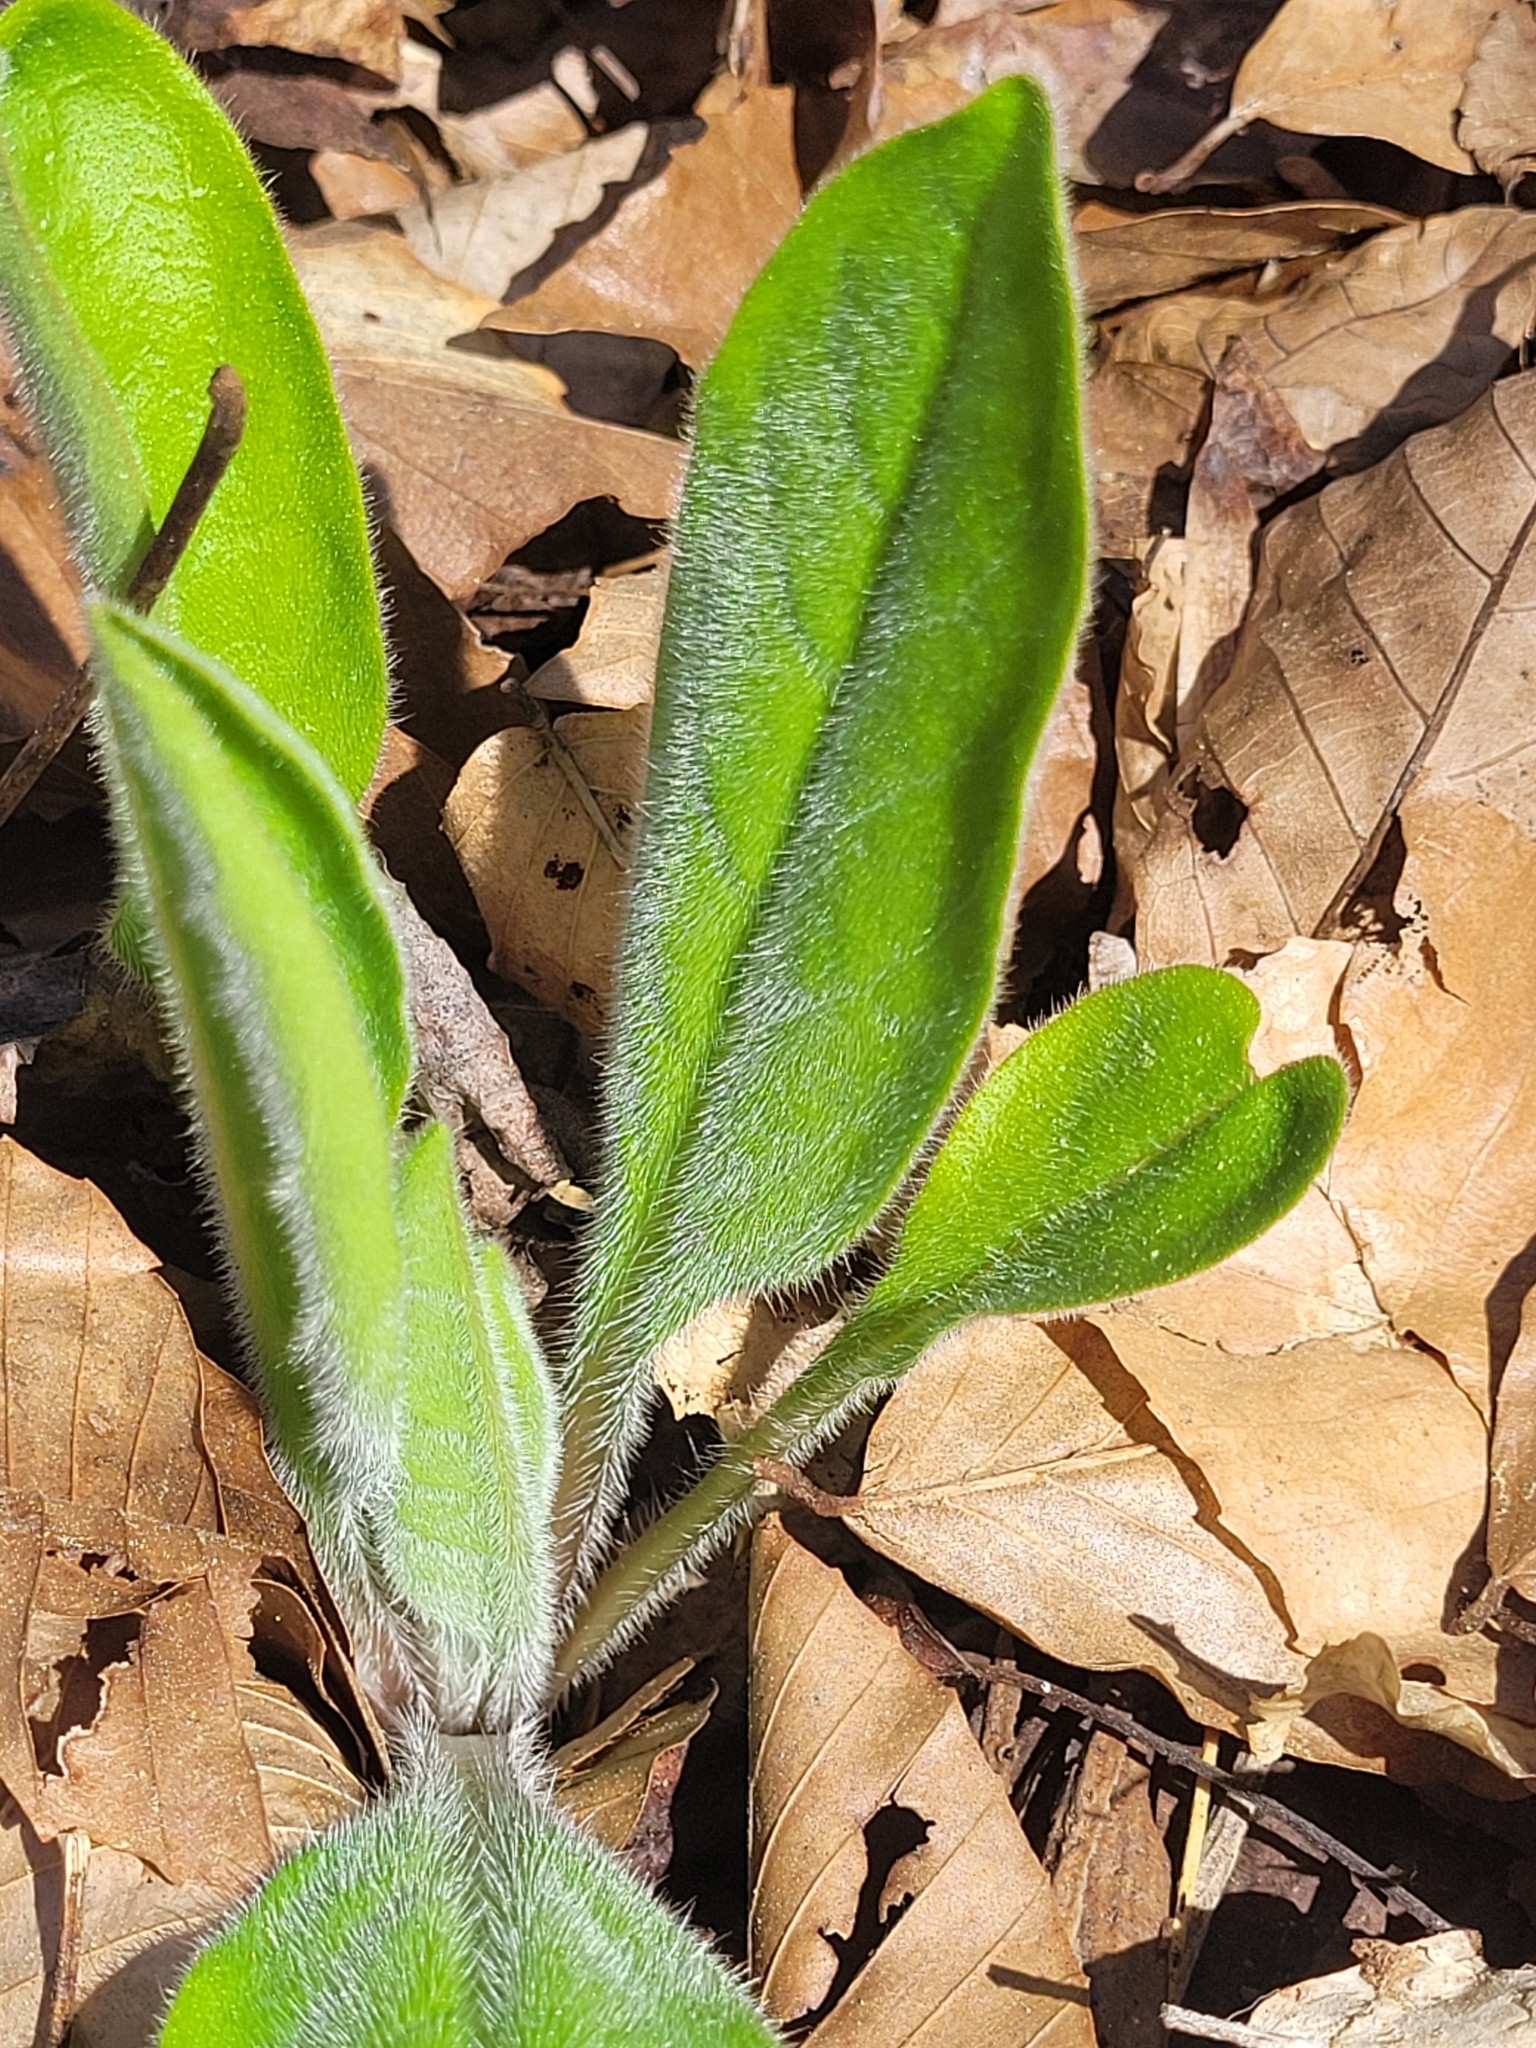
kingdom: Plantae
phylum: Tracheophyta
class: Magnoliopsida
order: Boraginales
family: Boraginaceae
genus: Andersonglossum
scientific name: Andersonglossum virginianum
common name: Wild comfrey
